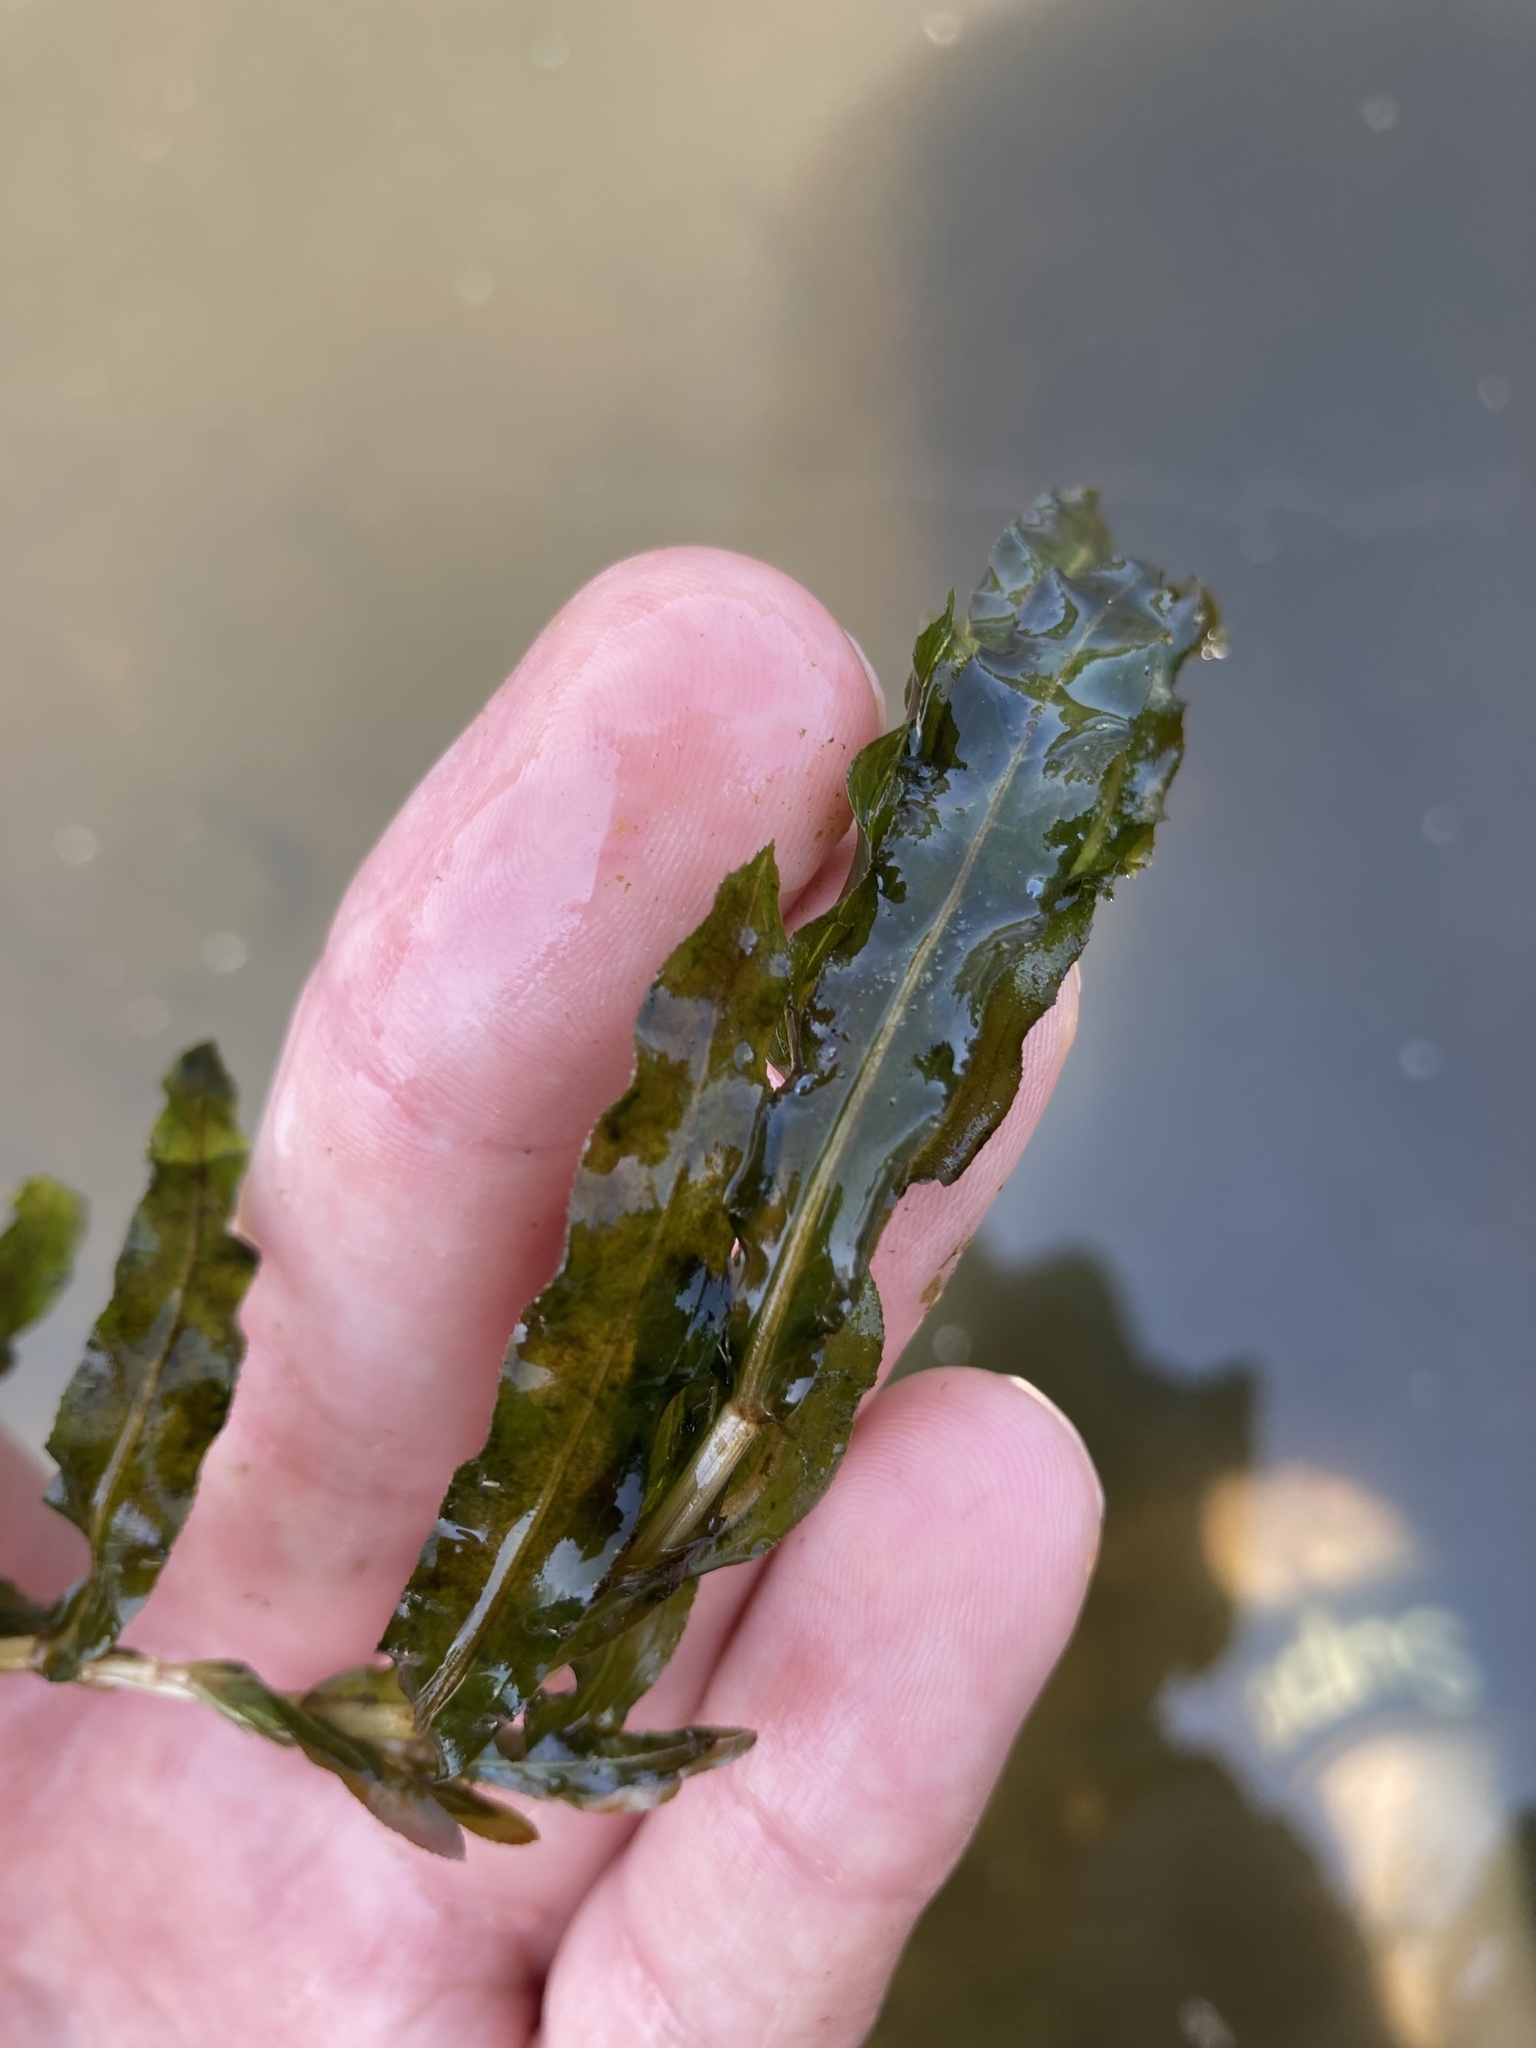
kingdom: Plantae
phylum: Tracheophyta
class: Liliopsida
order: Alismatales
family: Potamogetonaceae
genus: Potamogeton
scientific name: Potamogeton crispus
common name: Curled pondweed
